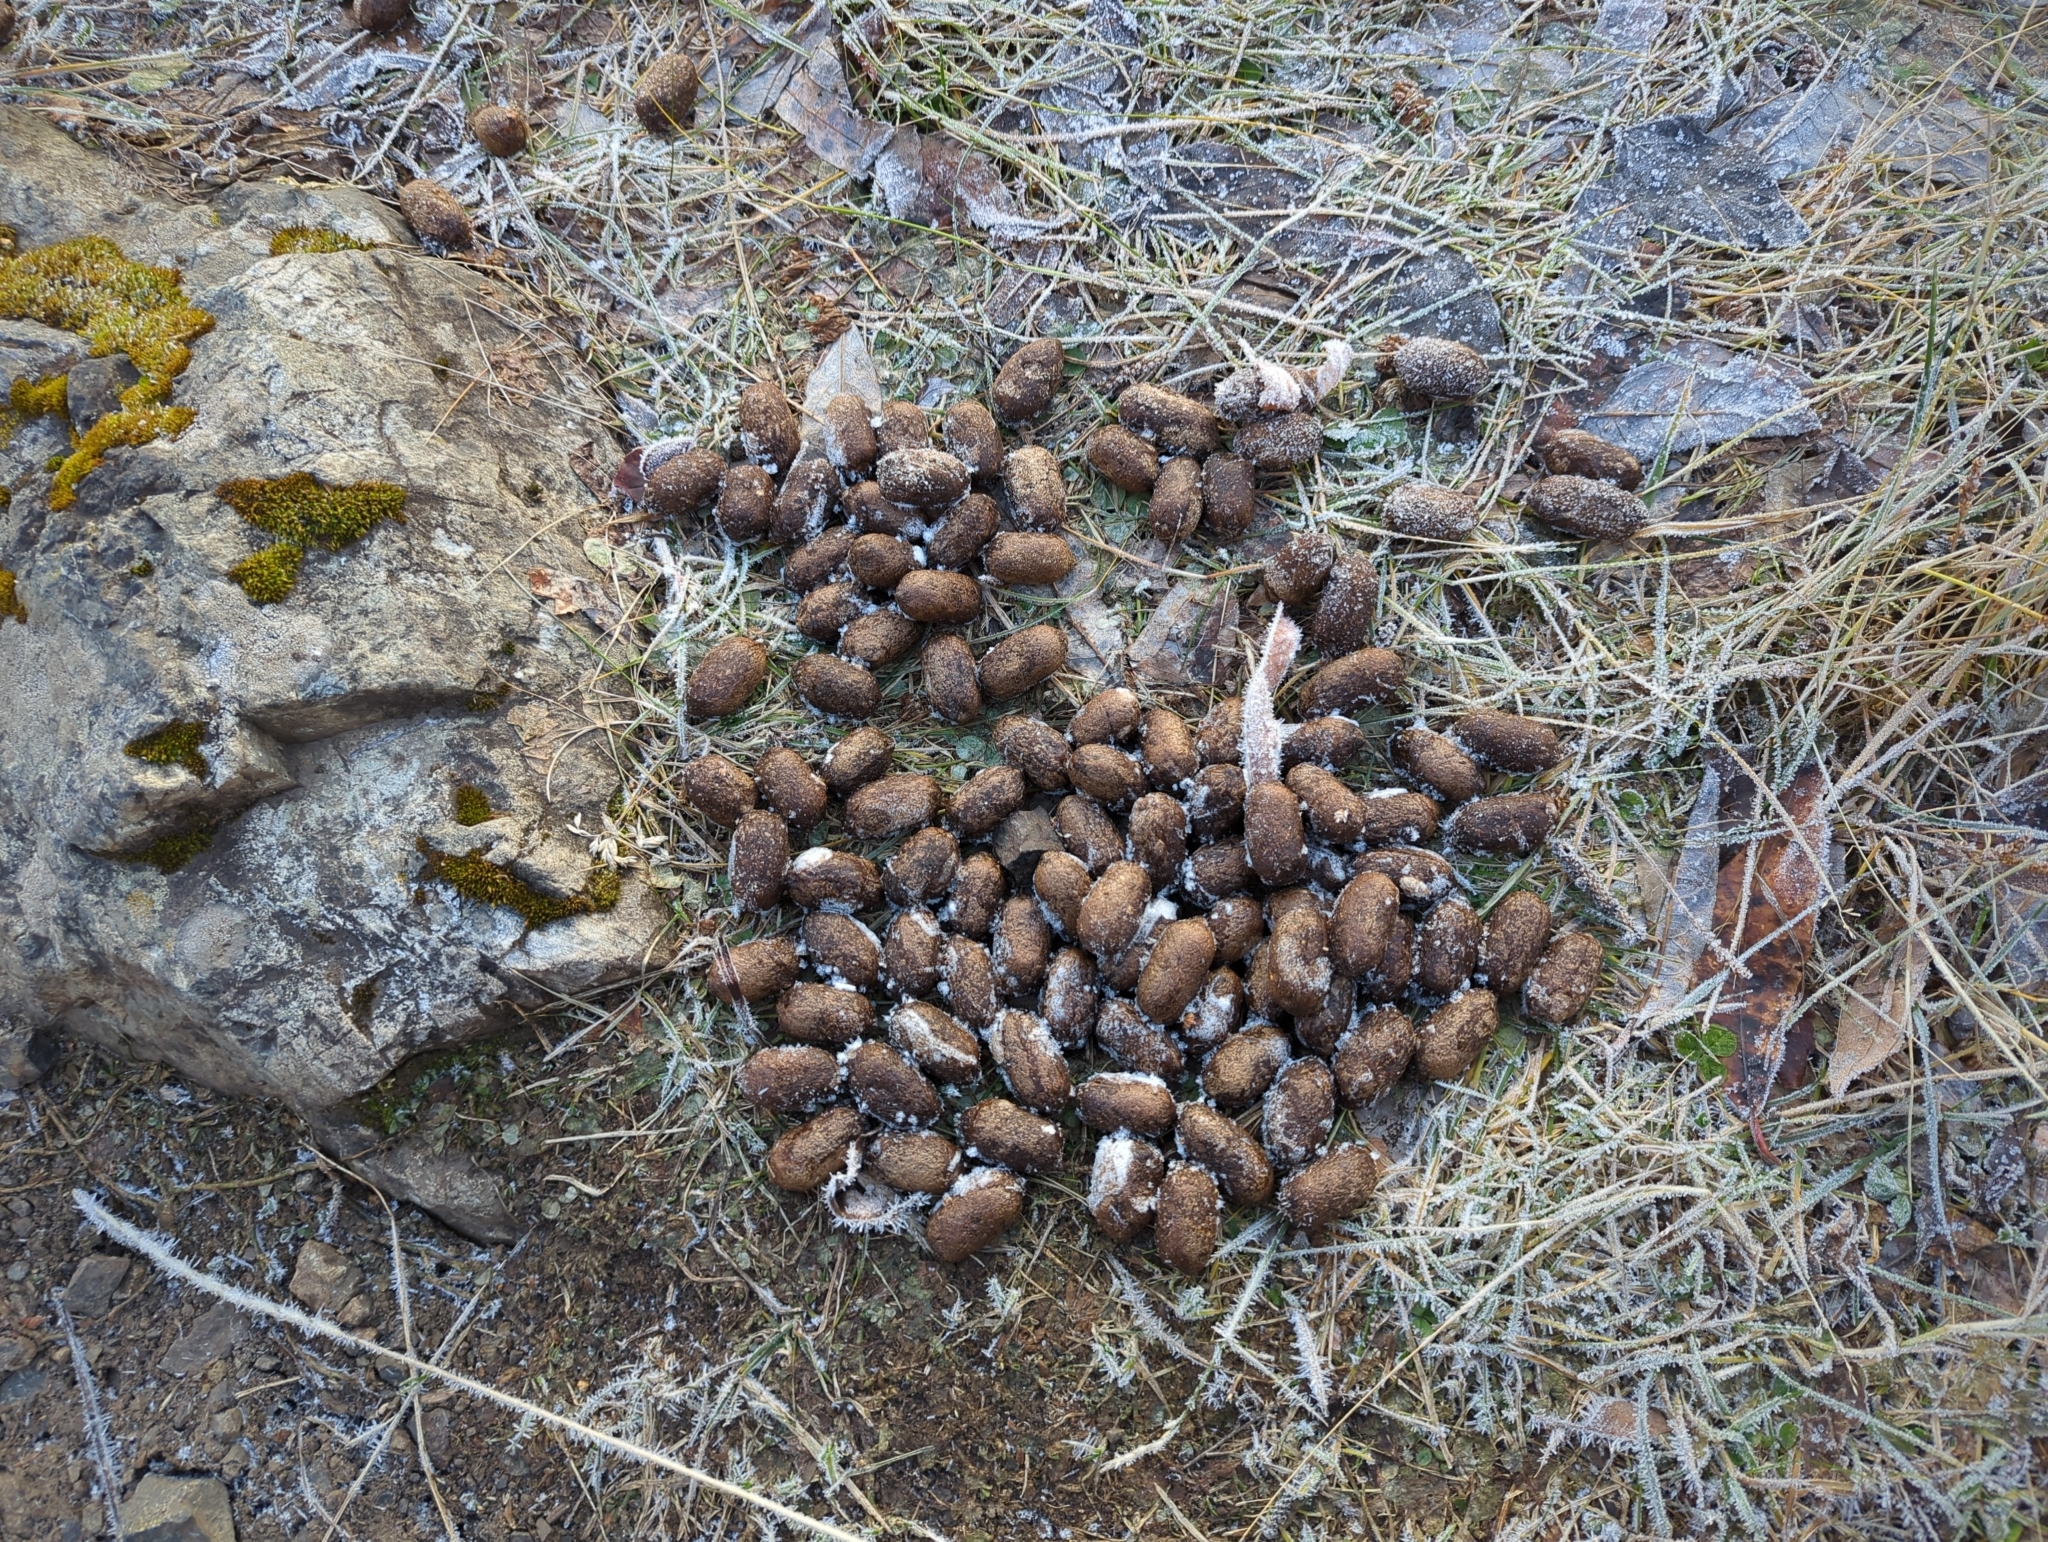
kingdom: Animalia
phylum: Chordata
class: Mammalia
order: Artiodactyla
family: Cervidae
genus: Alces
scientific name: Alces alces
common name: Moose
